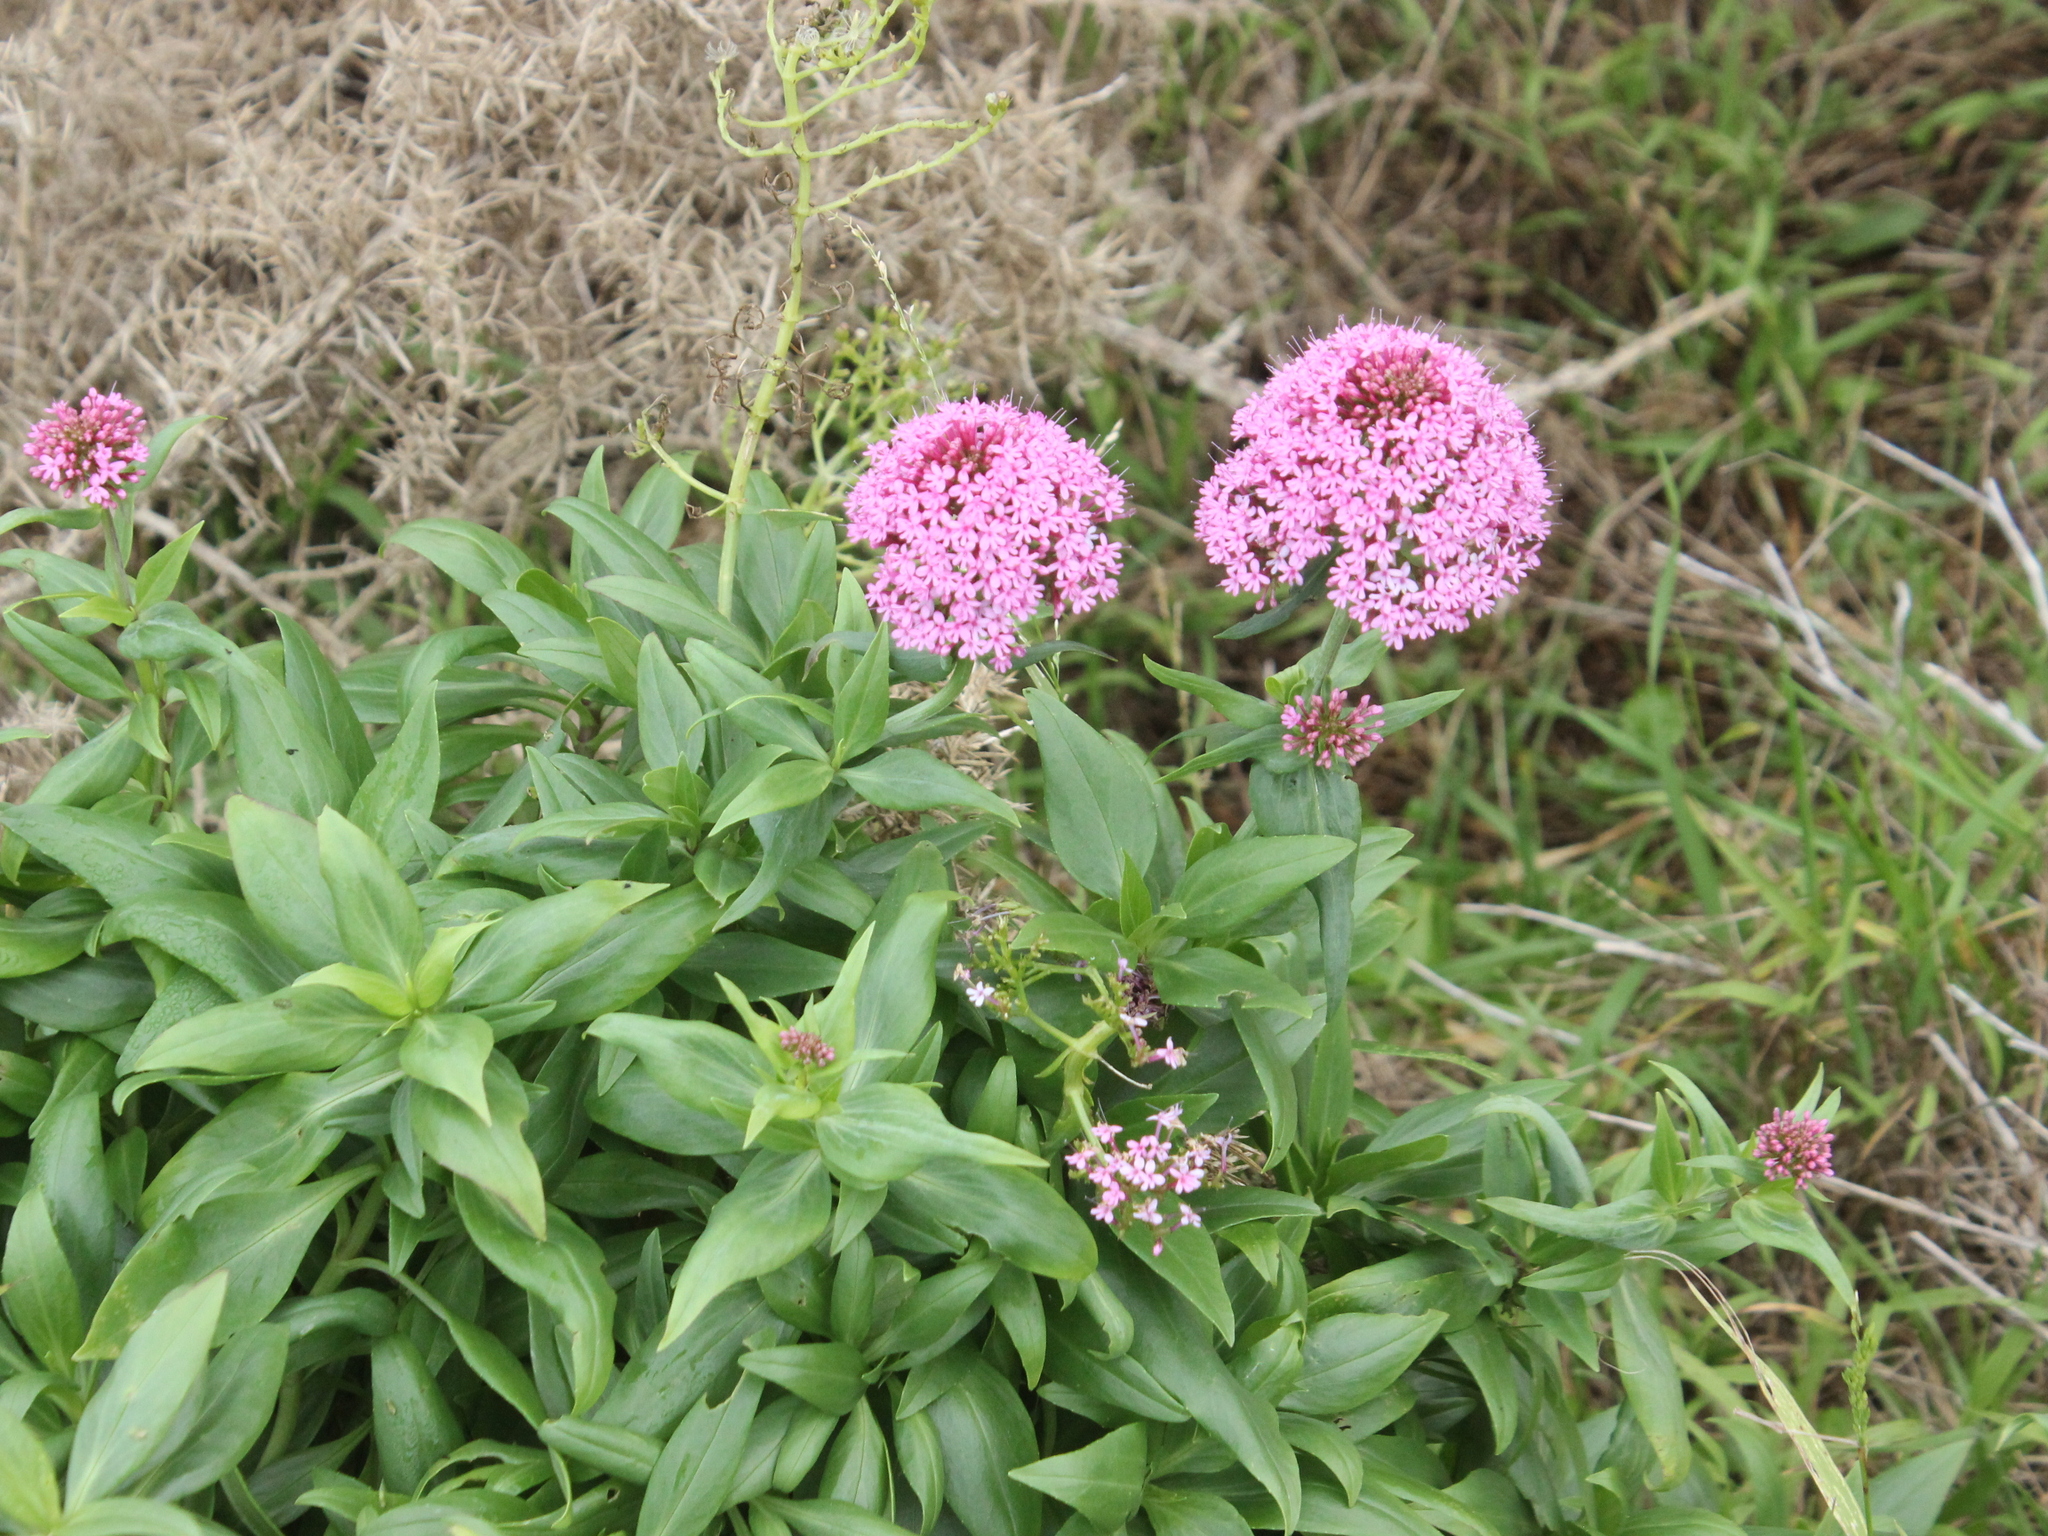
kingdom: Plantae
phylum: Tracheophyta
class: Magnoliopsida
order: Dipsacales
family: Caprifoliaceae
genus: Centranthus
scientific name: Centranthus ruber
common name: Red valerian
